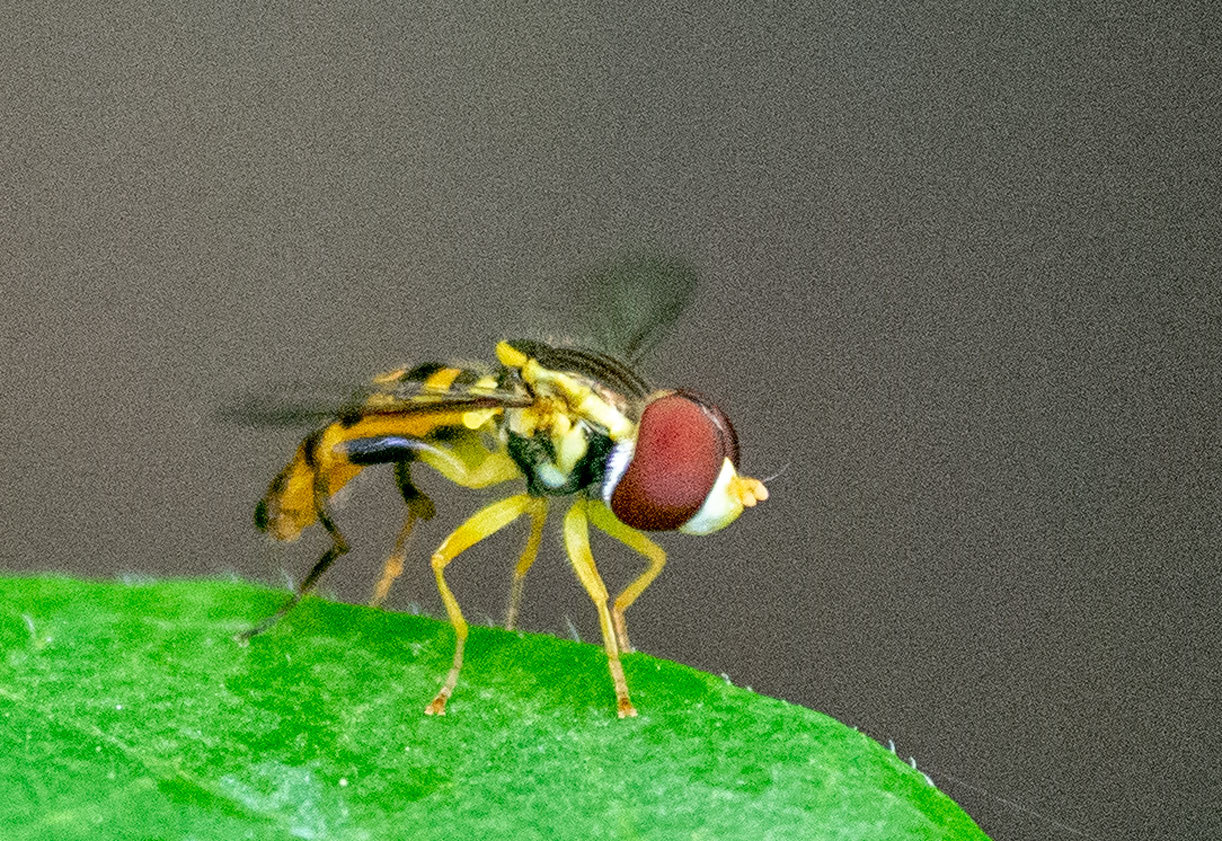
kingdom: Animalia
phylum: Arthropoda
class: Insecta
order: Diptera
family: Syrphidae
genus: Toxomerus
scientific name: Toxomerus geminatus
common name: Eastern calligrapher
